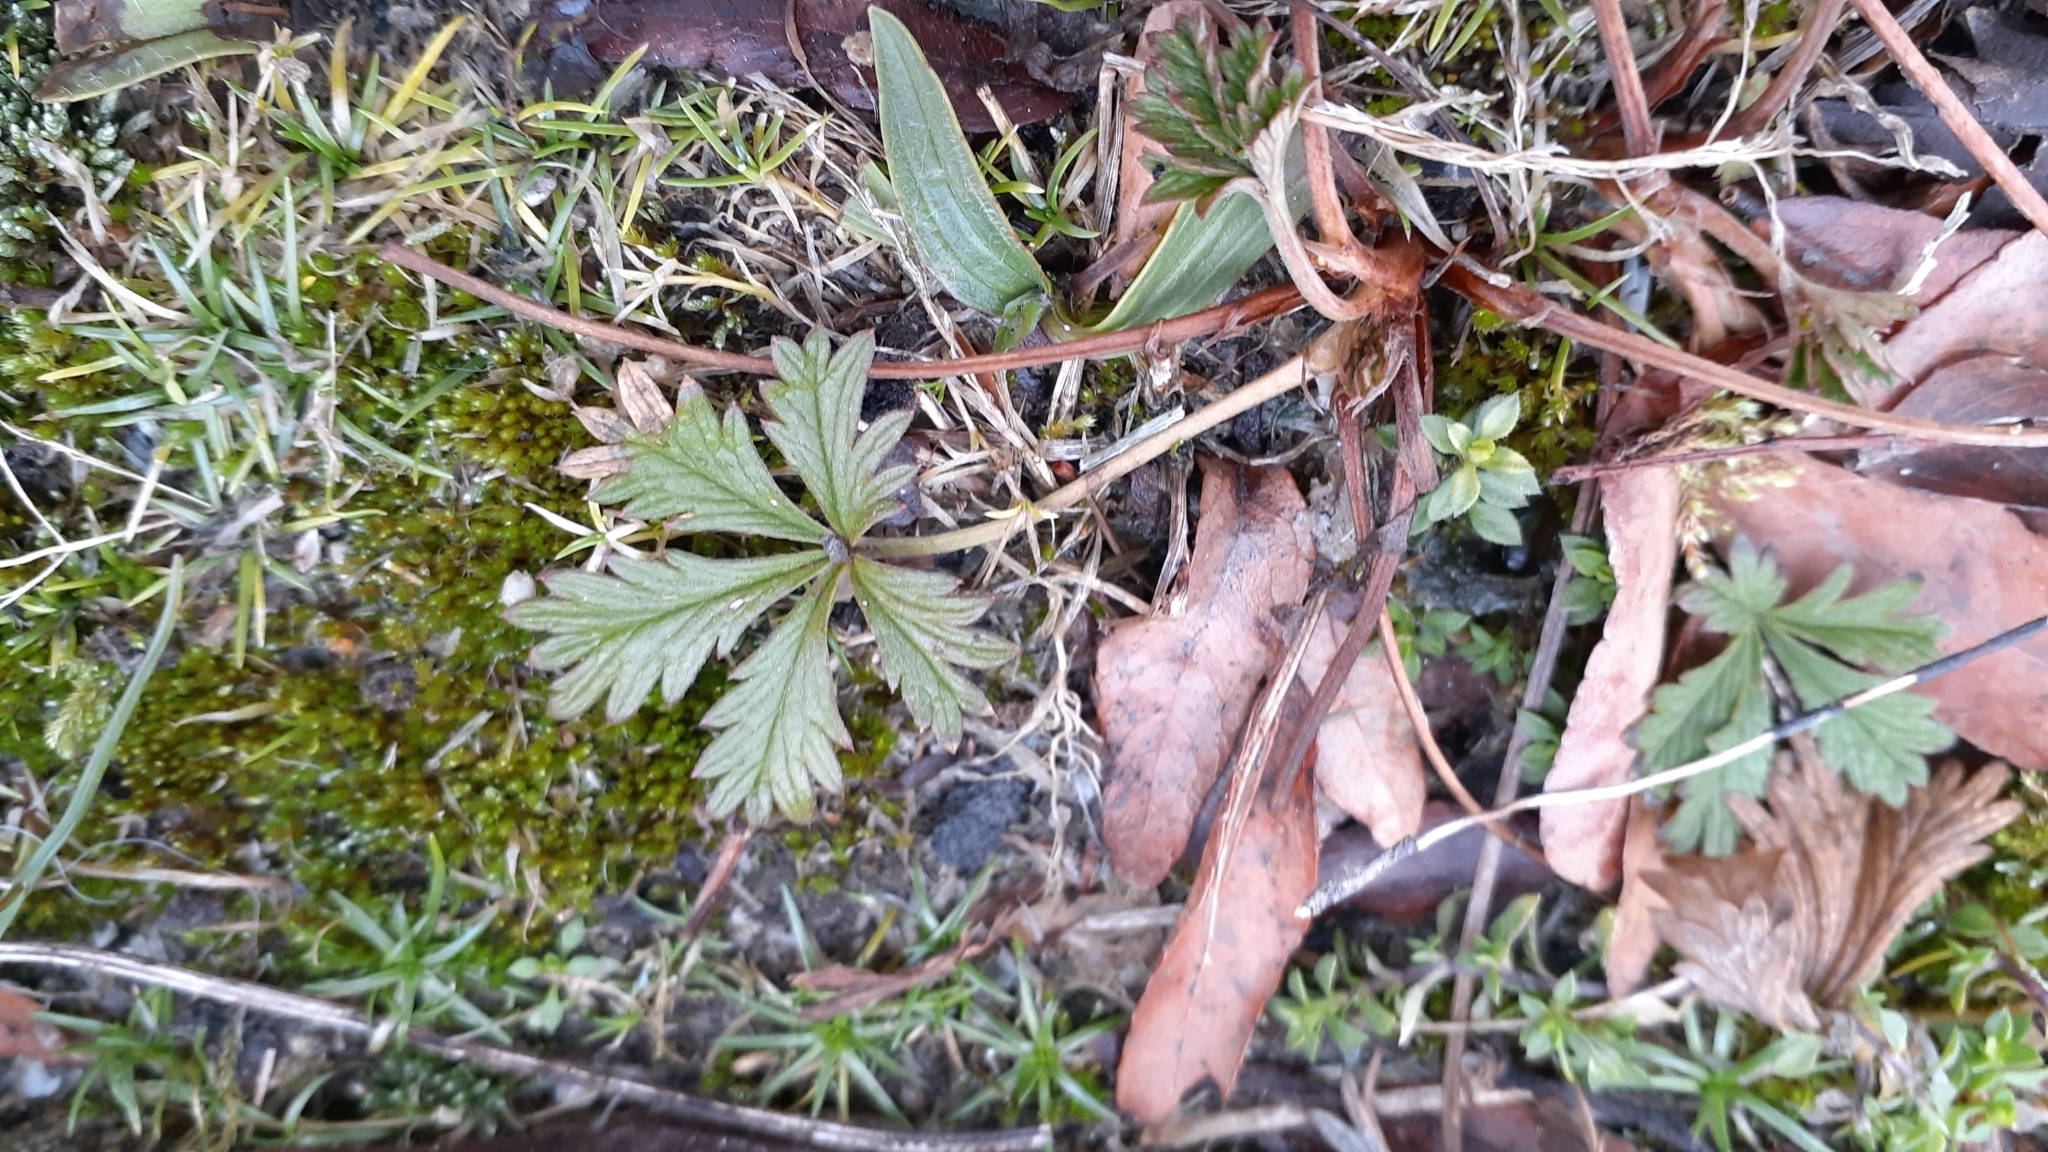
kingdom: Plantae
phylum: Tracheophyta
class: Magnoliopsida
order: Rosales
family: Rosaceae
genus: Potentilla
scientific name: Potentilla argentea
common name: Hoary cinquefoil
